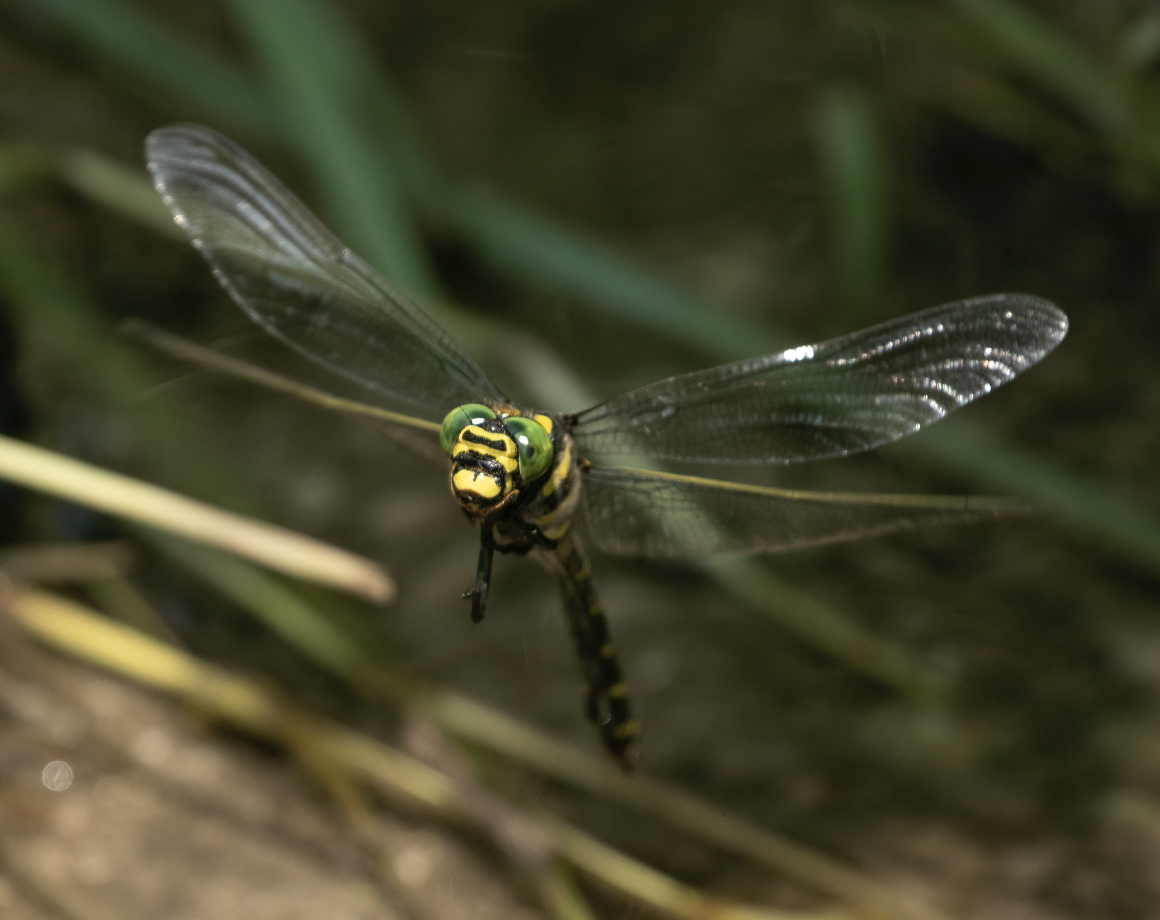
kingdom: Animalia
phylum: Arthropoda
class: Insecta
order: Odonata
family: Cordulegastridae
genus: Cordulegaster
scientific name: Cordulegaster boltonii
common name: Golden-ringed dragonfly
